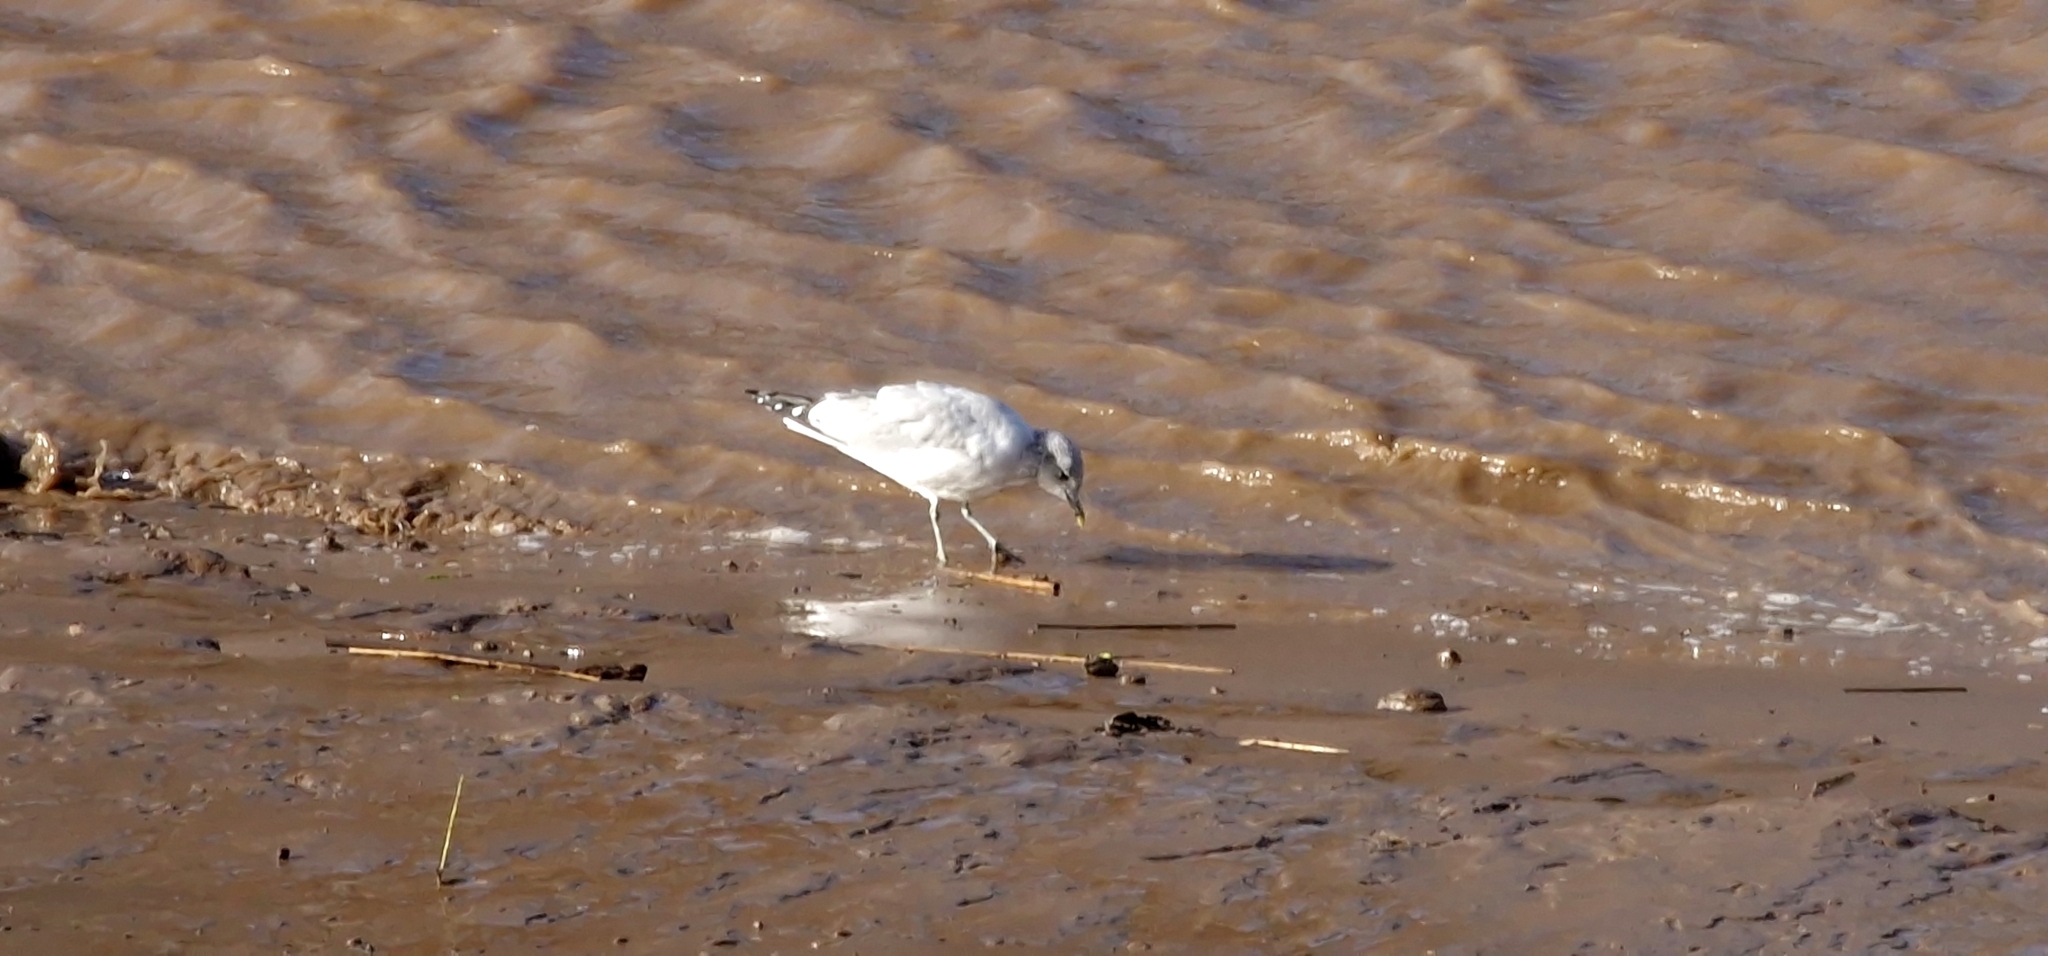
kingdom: Animalia
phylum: Chordata
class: Aves
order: Charadriiformes
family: Laridae
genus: Larus
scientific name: Larus canus
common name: Mew gull
